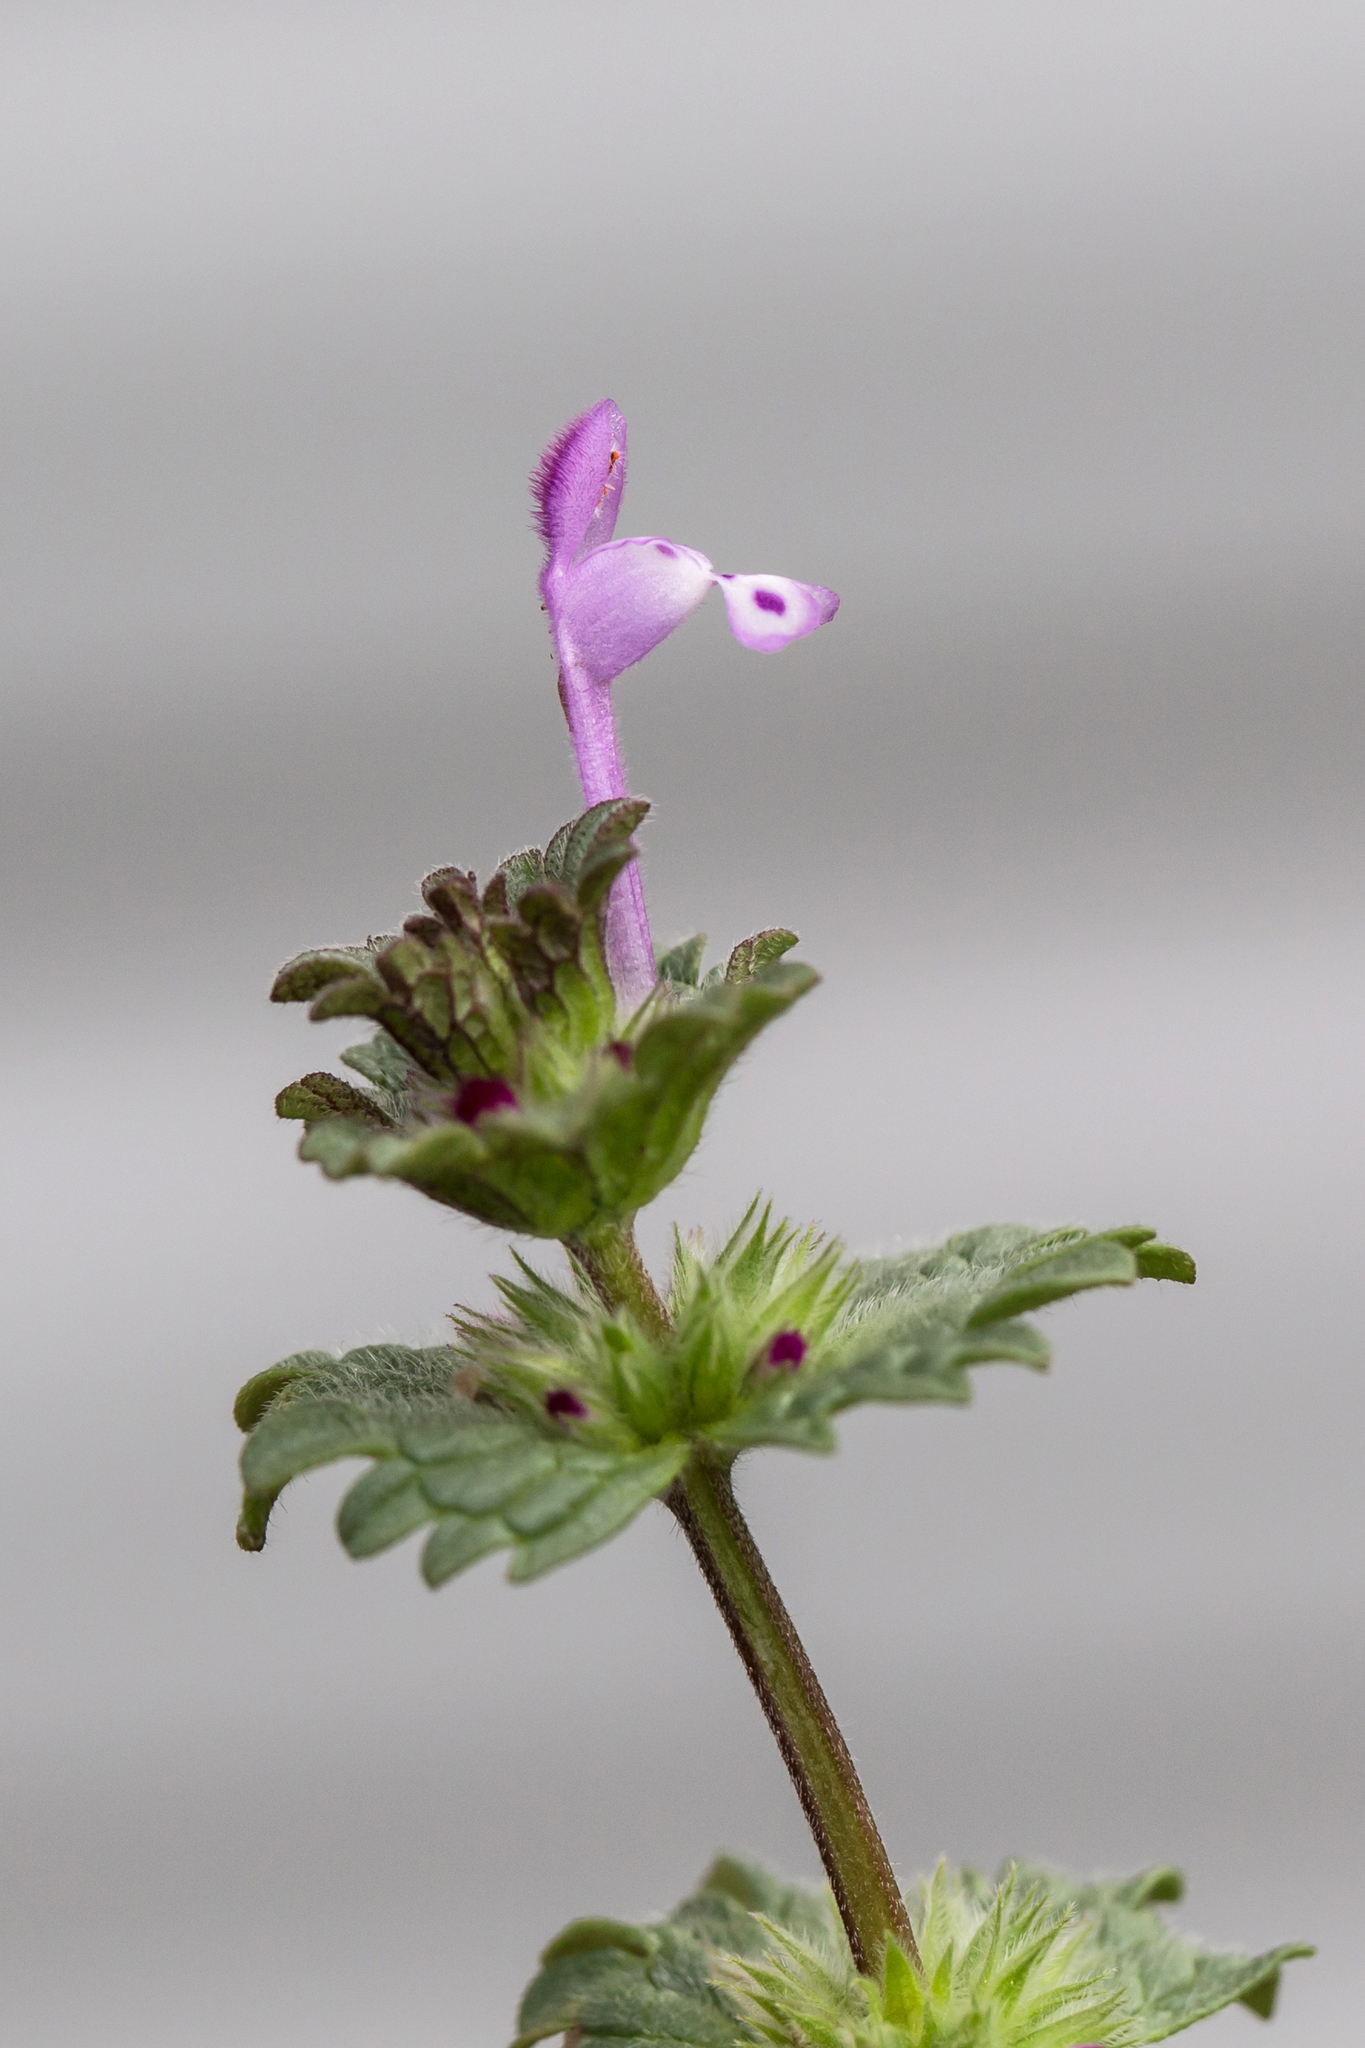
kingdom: Plantae
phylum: Tracheophyta
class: Magnoliopsida
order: Lamiales
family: Lamiaceae
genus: Lamium
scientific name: Lamium amplexicaule
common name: Henbit dead-nettle
